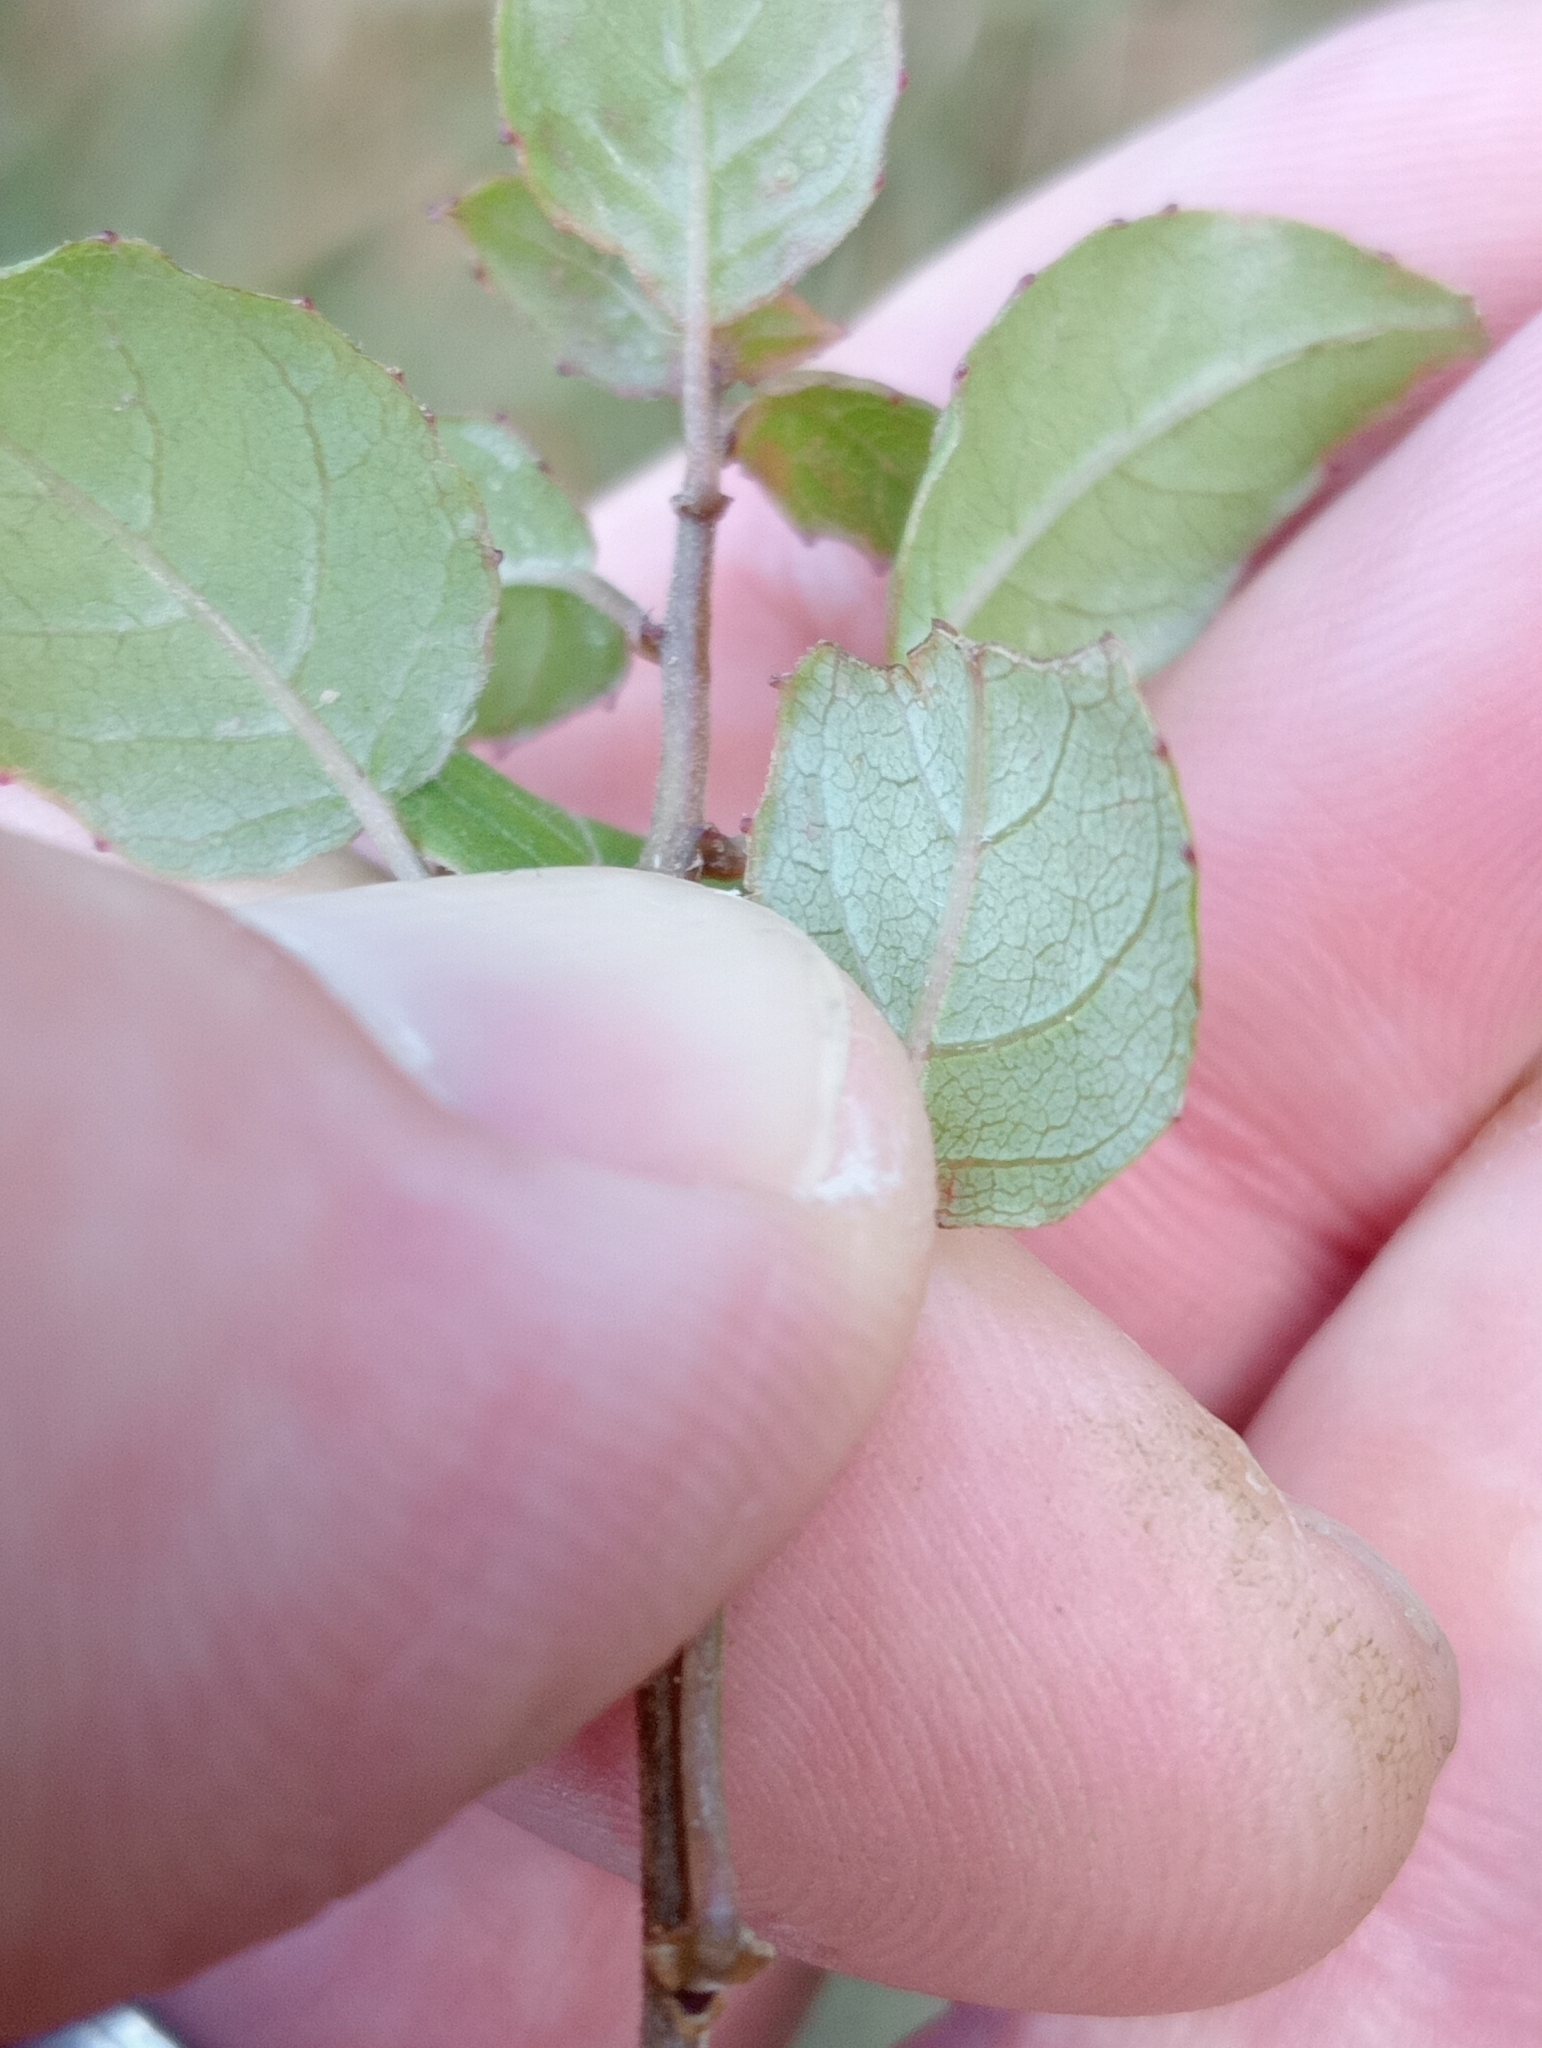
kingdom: Plantae
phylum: Tracheophyta
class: Magnoliopsida
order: Myrtales
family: Onagraceae
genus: Fuchsia
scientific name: Fuchsia perscandens
